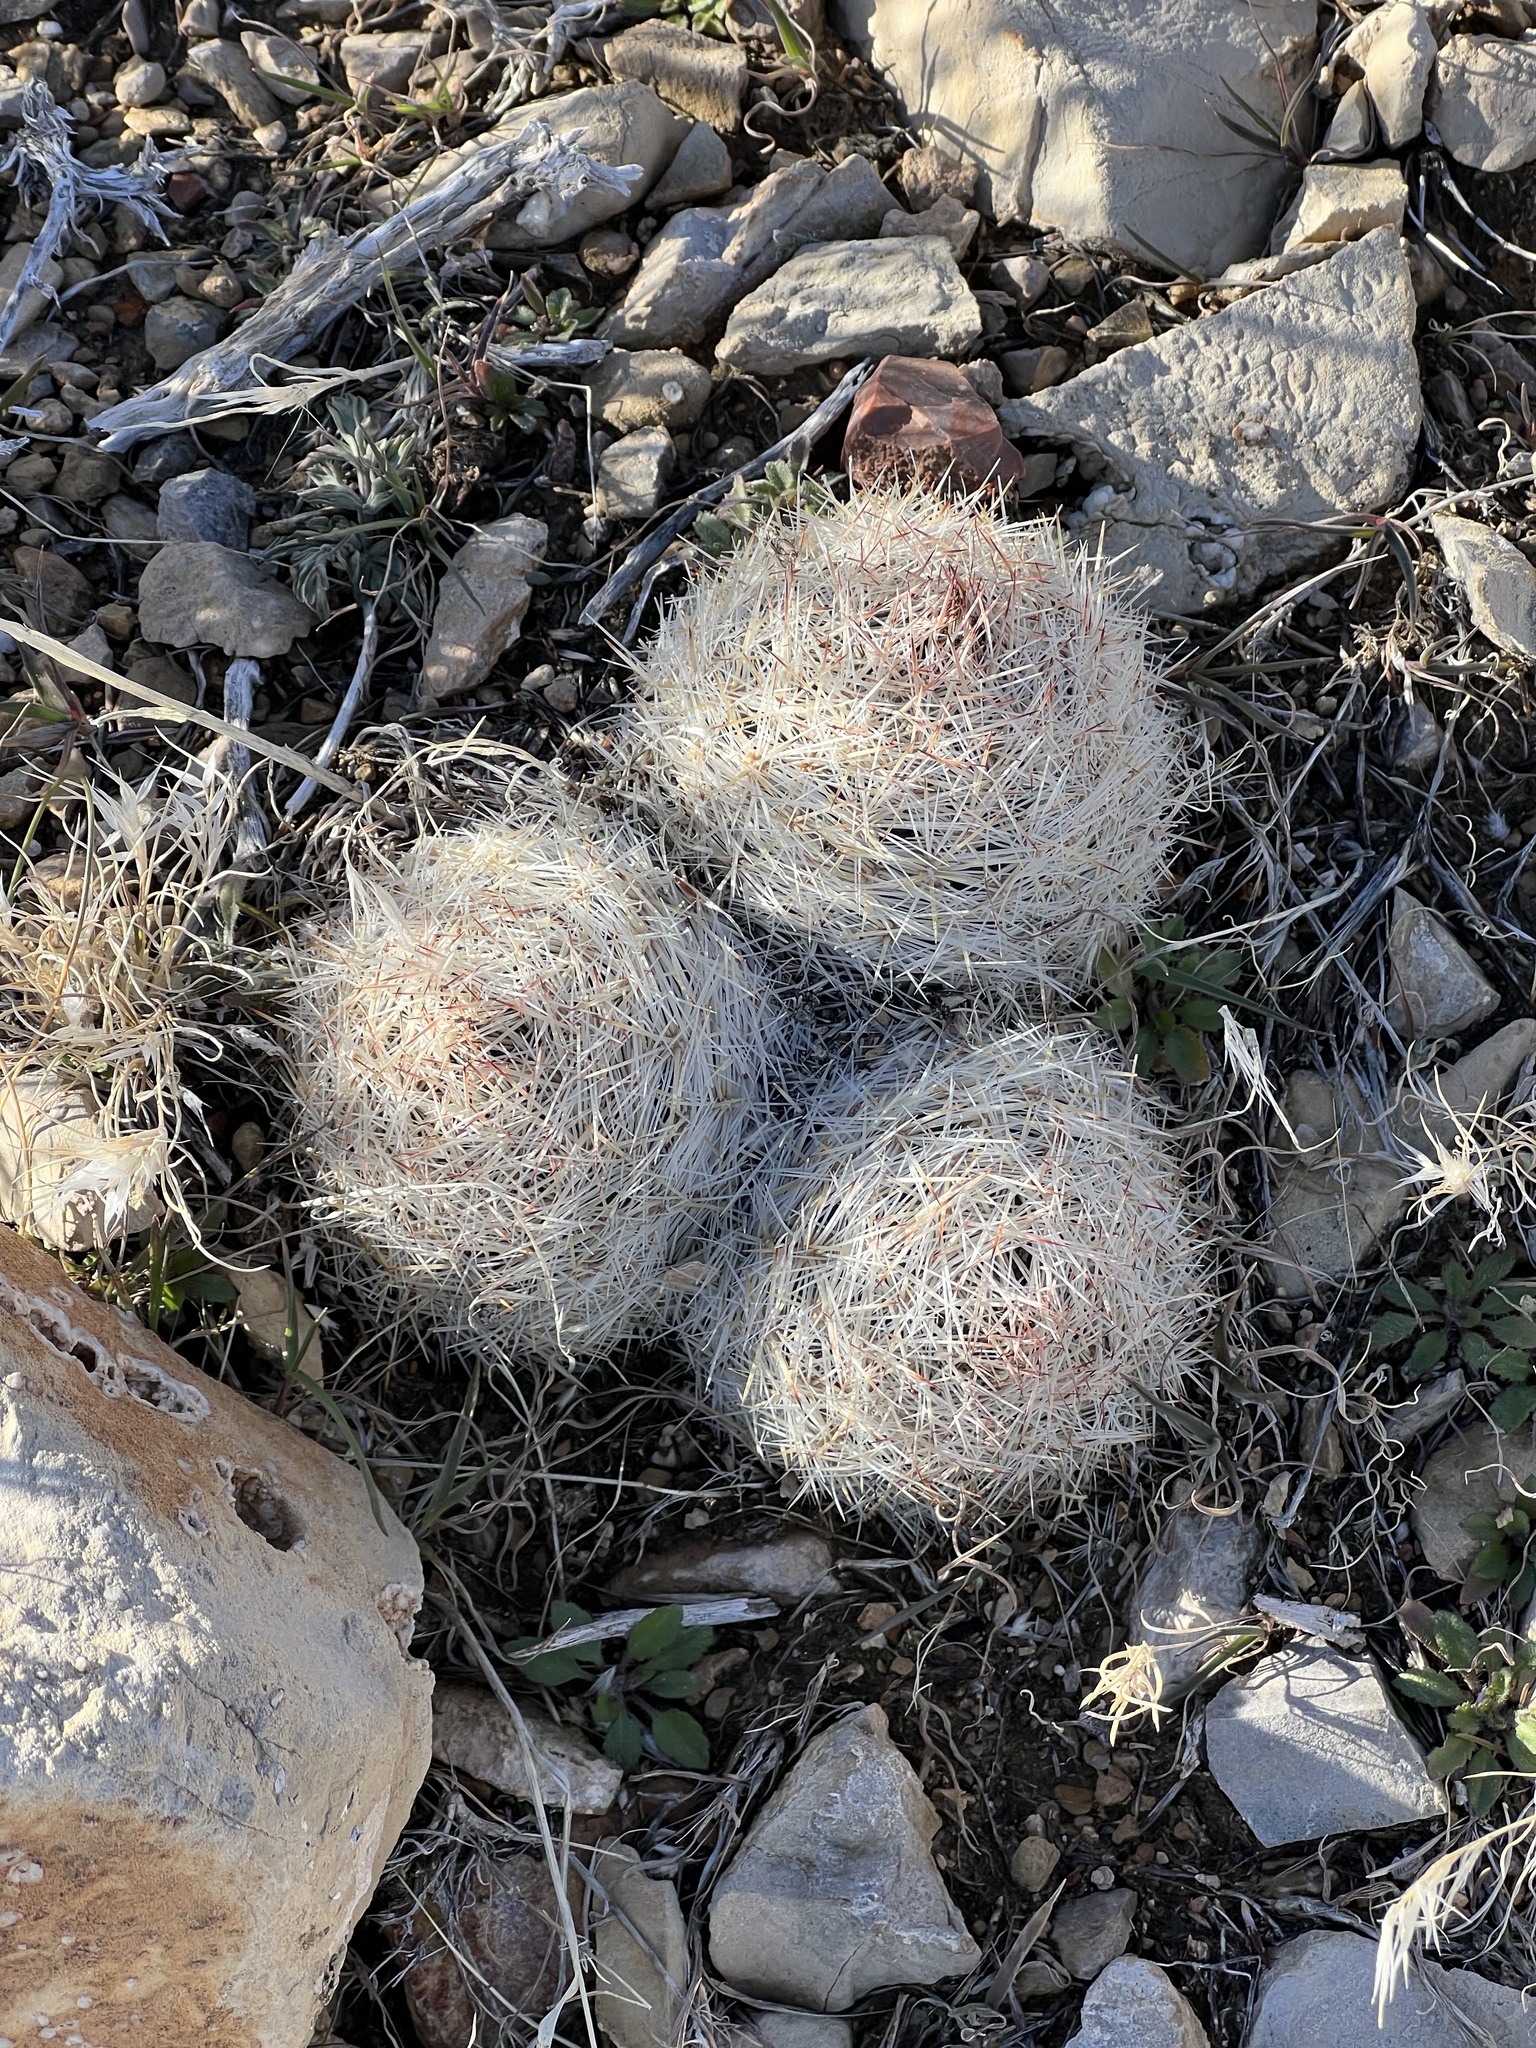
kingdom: Plantae
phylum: Tracheophyta
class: Magnoliopsida
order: Caryophyllales
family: Cactaceae
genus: Pelecyphora
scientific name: Pelecyphora dasyacantha
